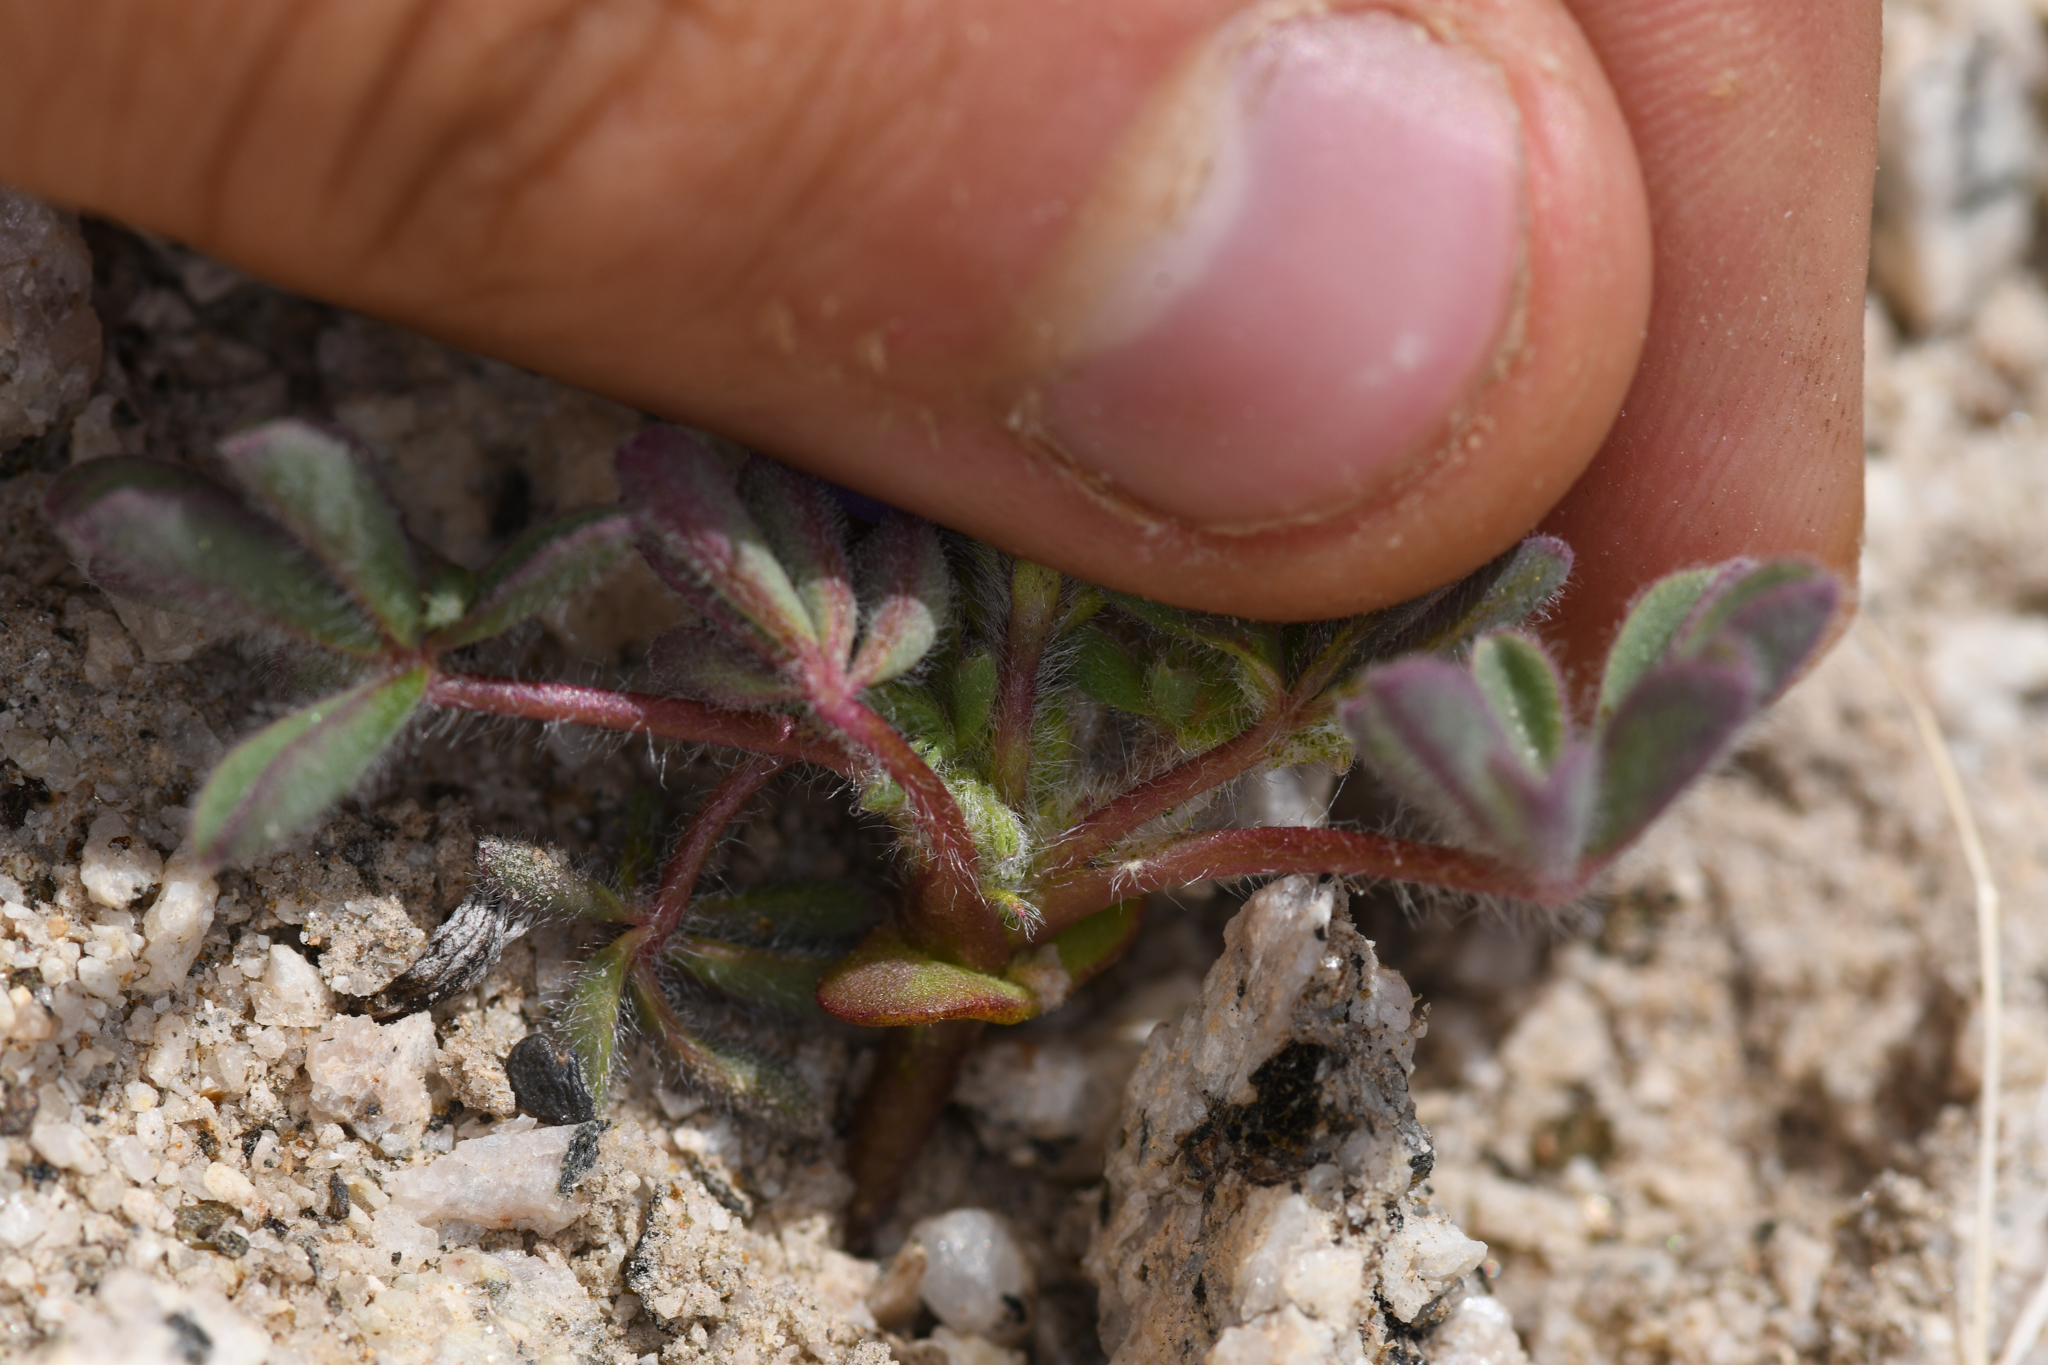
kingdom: Plantae
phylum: Tracheophyta
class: Magnoliopsida
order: Fabales
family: Fabaceae
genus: Lupinus
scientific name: Lupinus brevicaulis
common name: Sand lupine
